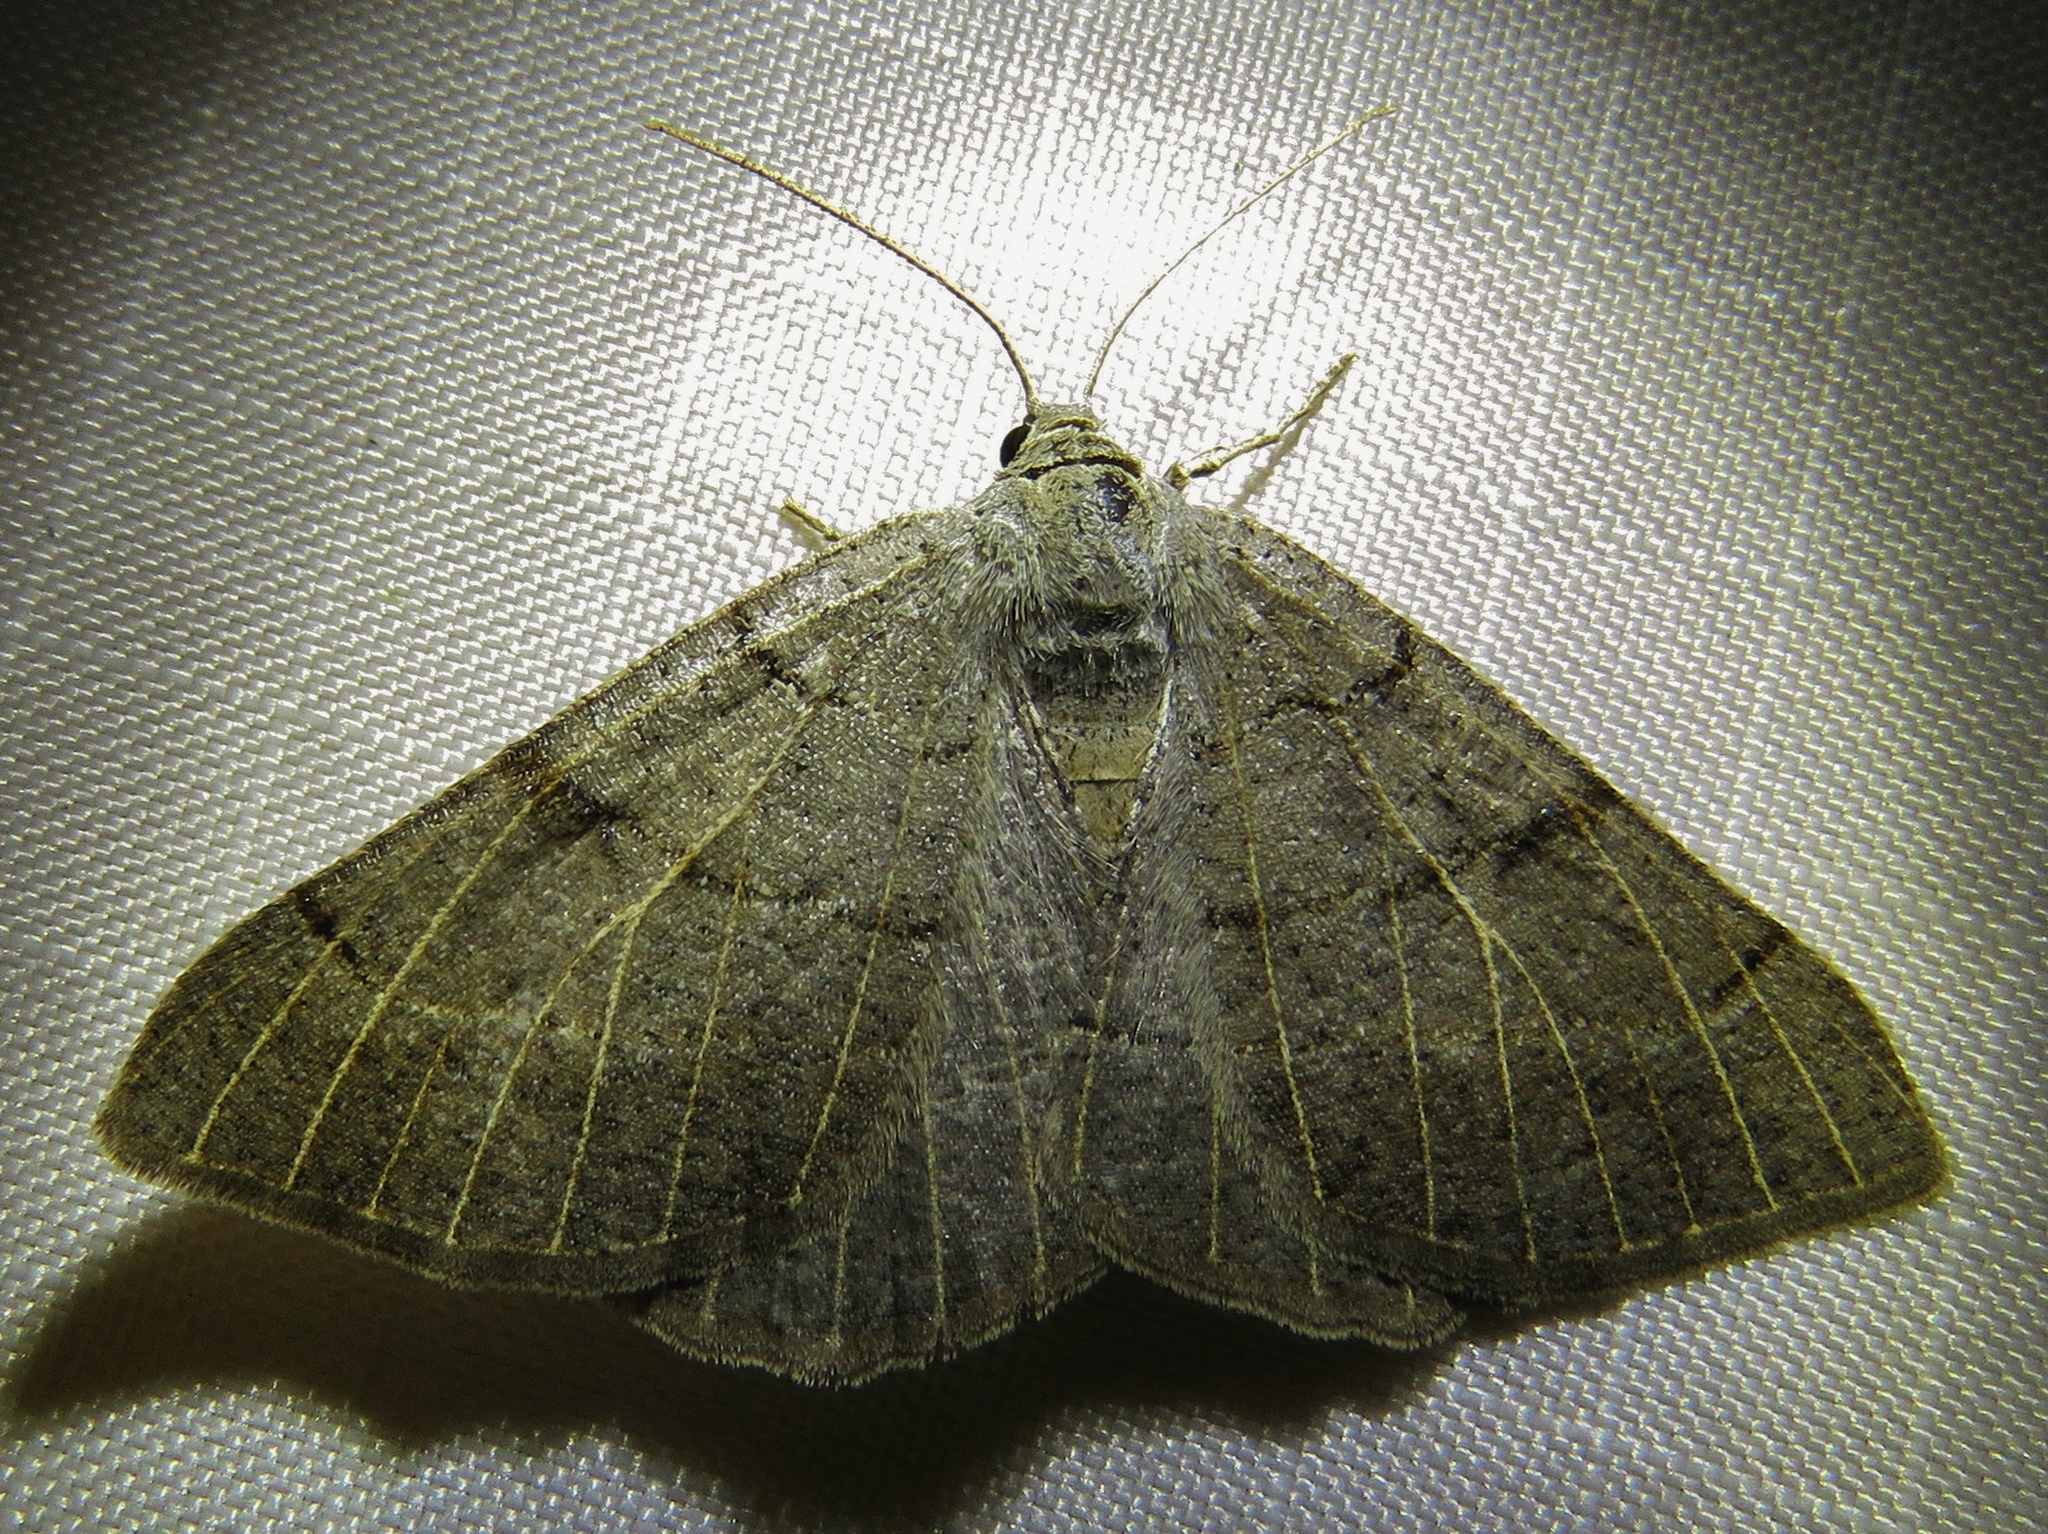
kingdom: Animalia
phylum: Arthropoda
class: Insecta
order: Lepidoptera
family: Geometridae
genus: Isturgia
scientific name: Isturgia dislocaria
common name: Pale-viened enconista
